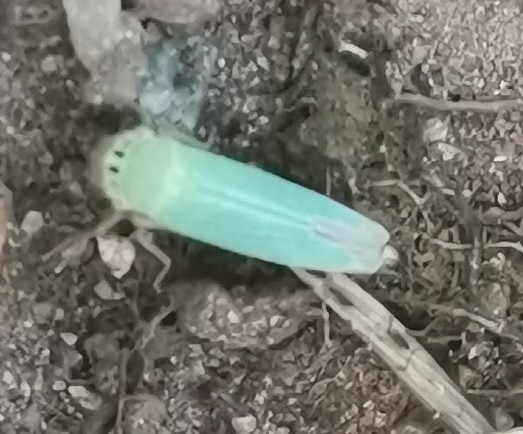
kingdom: Animalia
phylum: Arthropoda
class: Insecta
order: Hemiptera
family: Cicadellidae
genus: Cicadella
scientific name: Cicadella viridis
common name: Leafhopper
